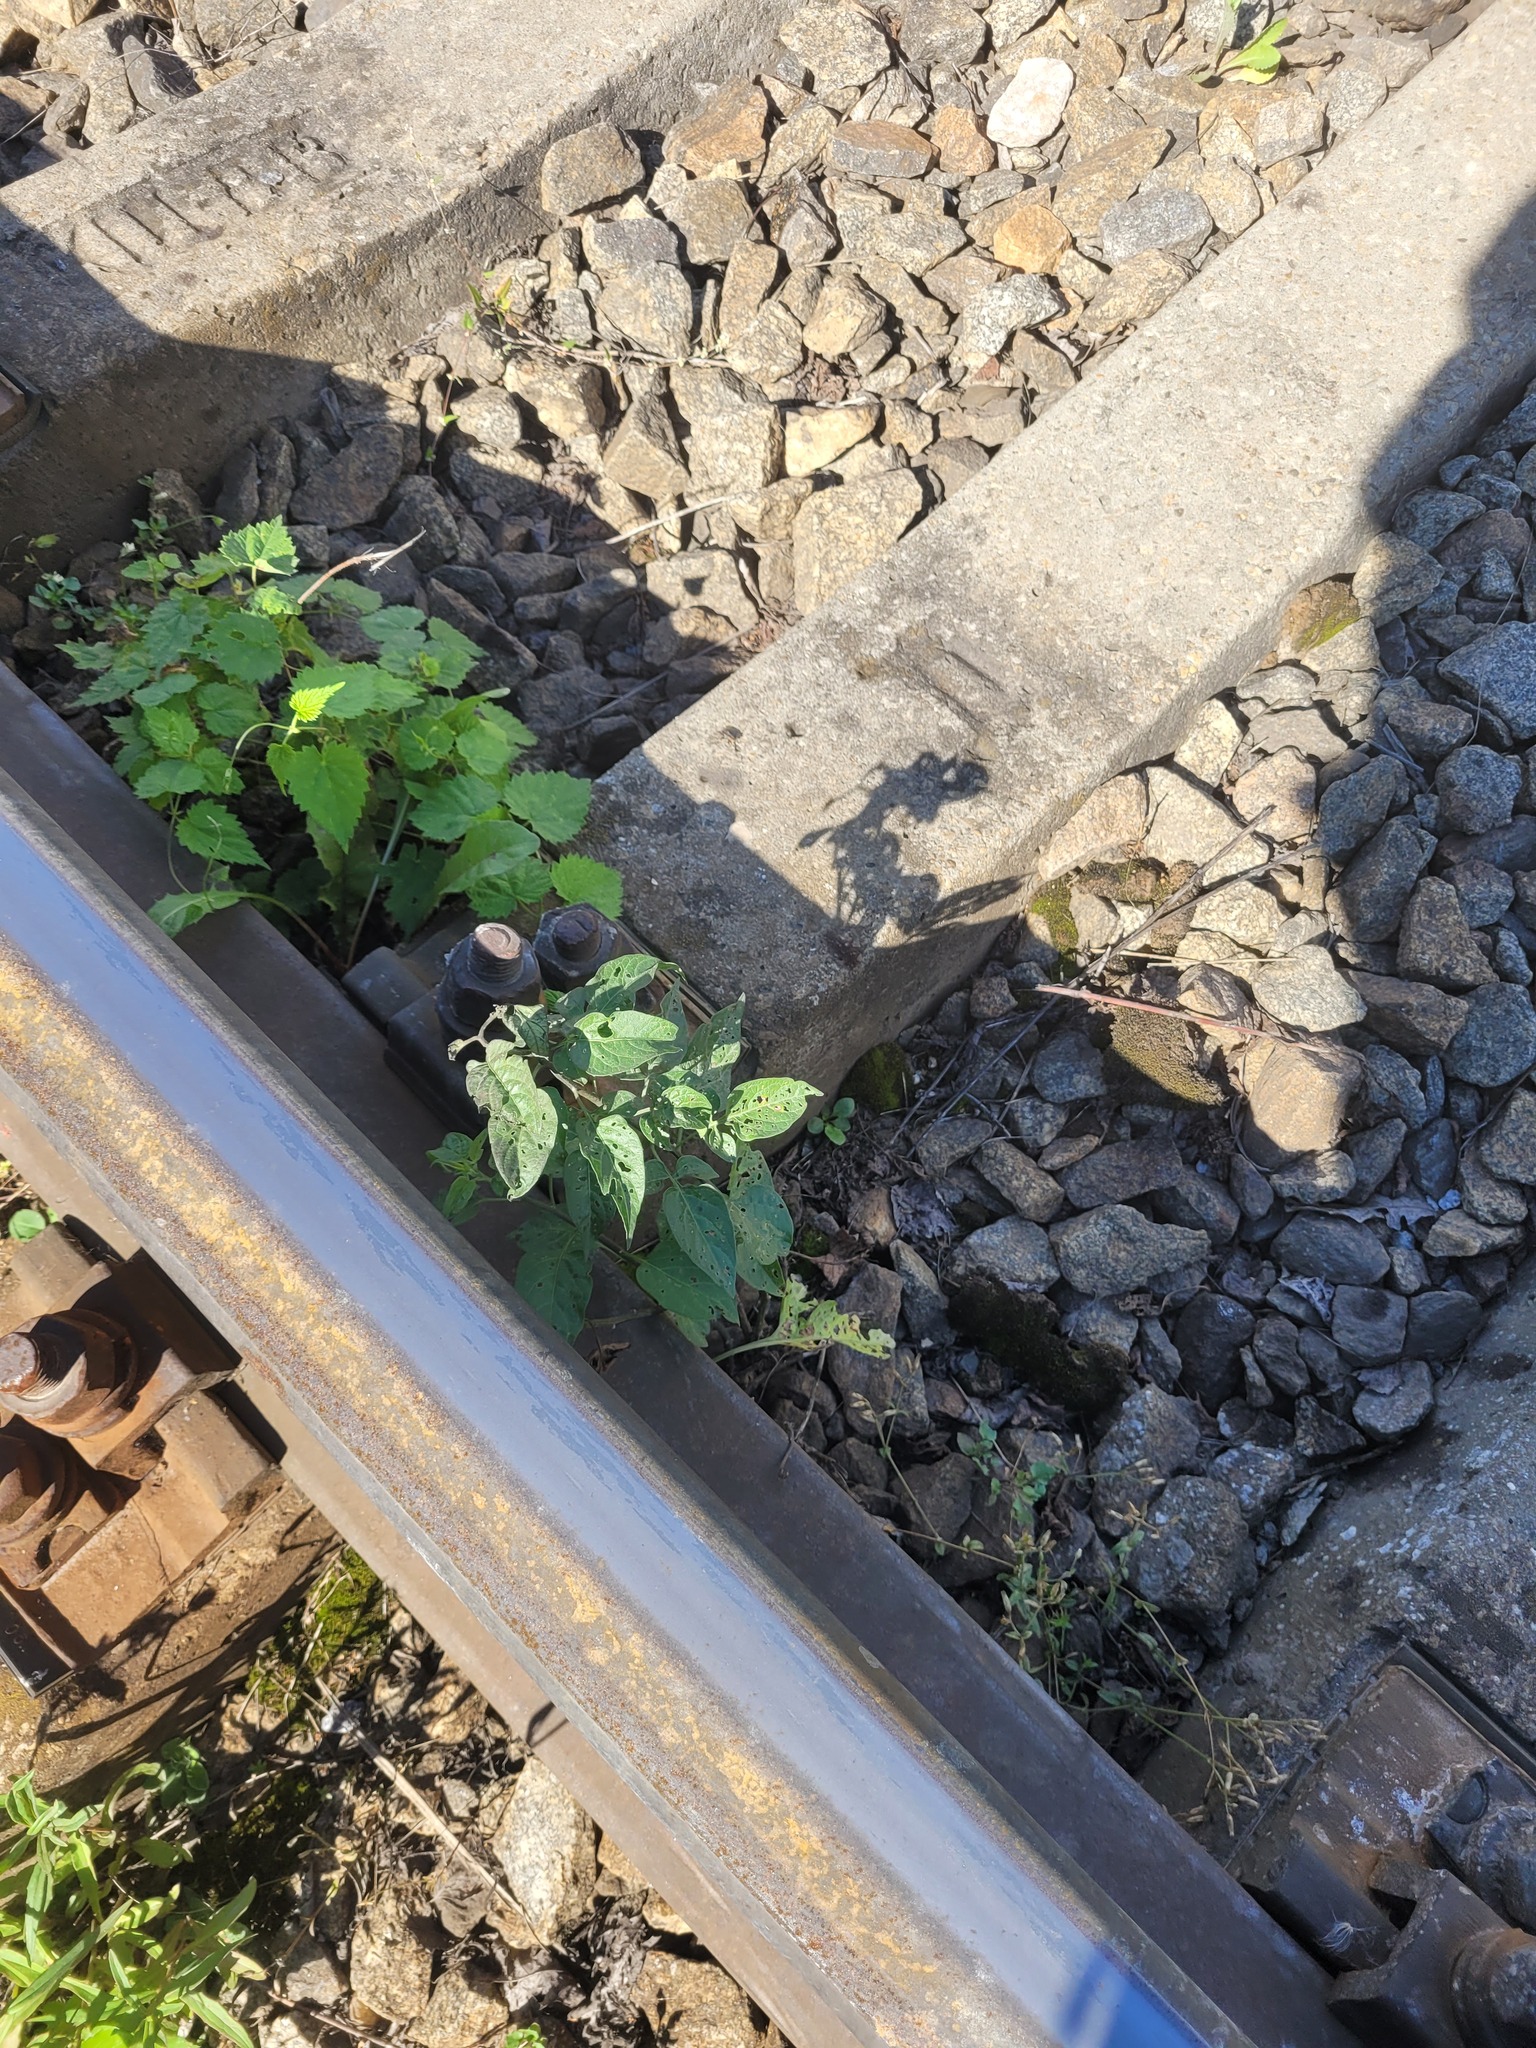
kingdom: Plantae
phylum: Tracheophyta
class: Magnoliopsida
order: Solanales
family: Solanaceae
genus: Solanum
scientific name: Solanum dulcamara
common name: Climbing nightshade
